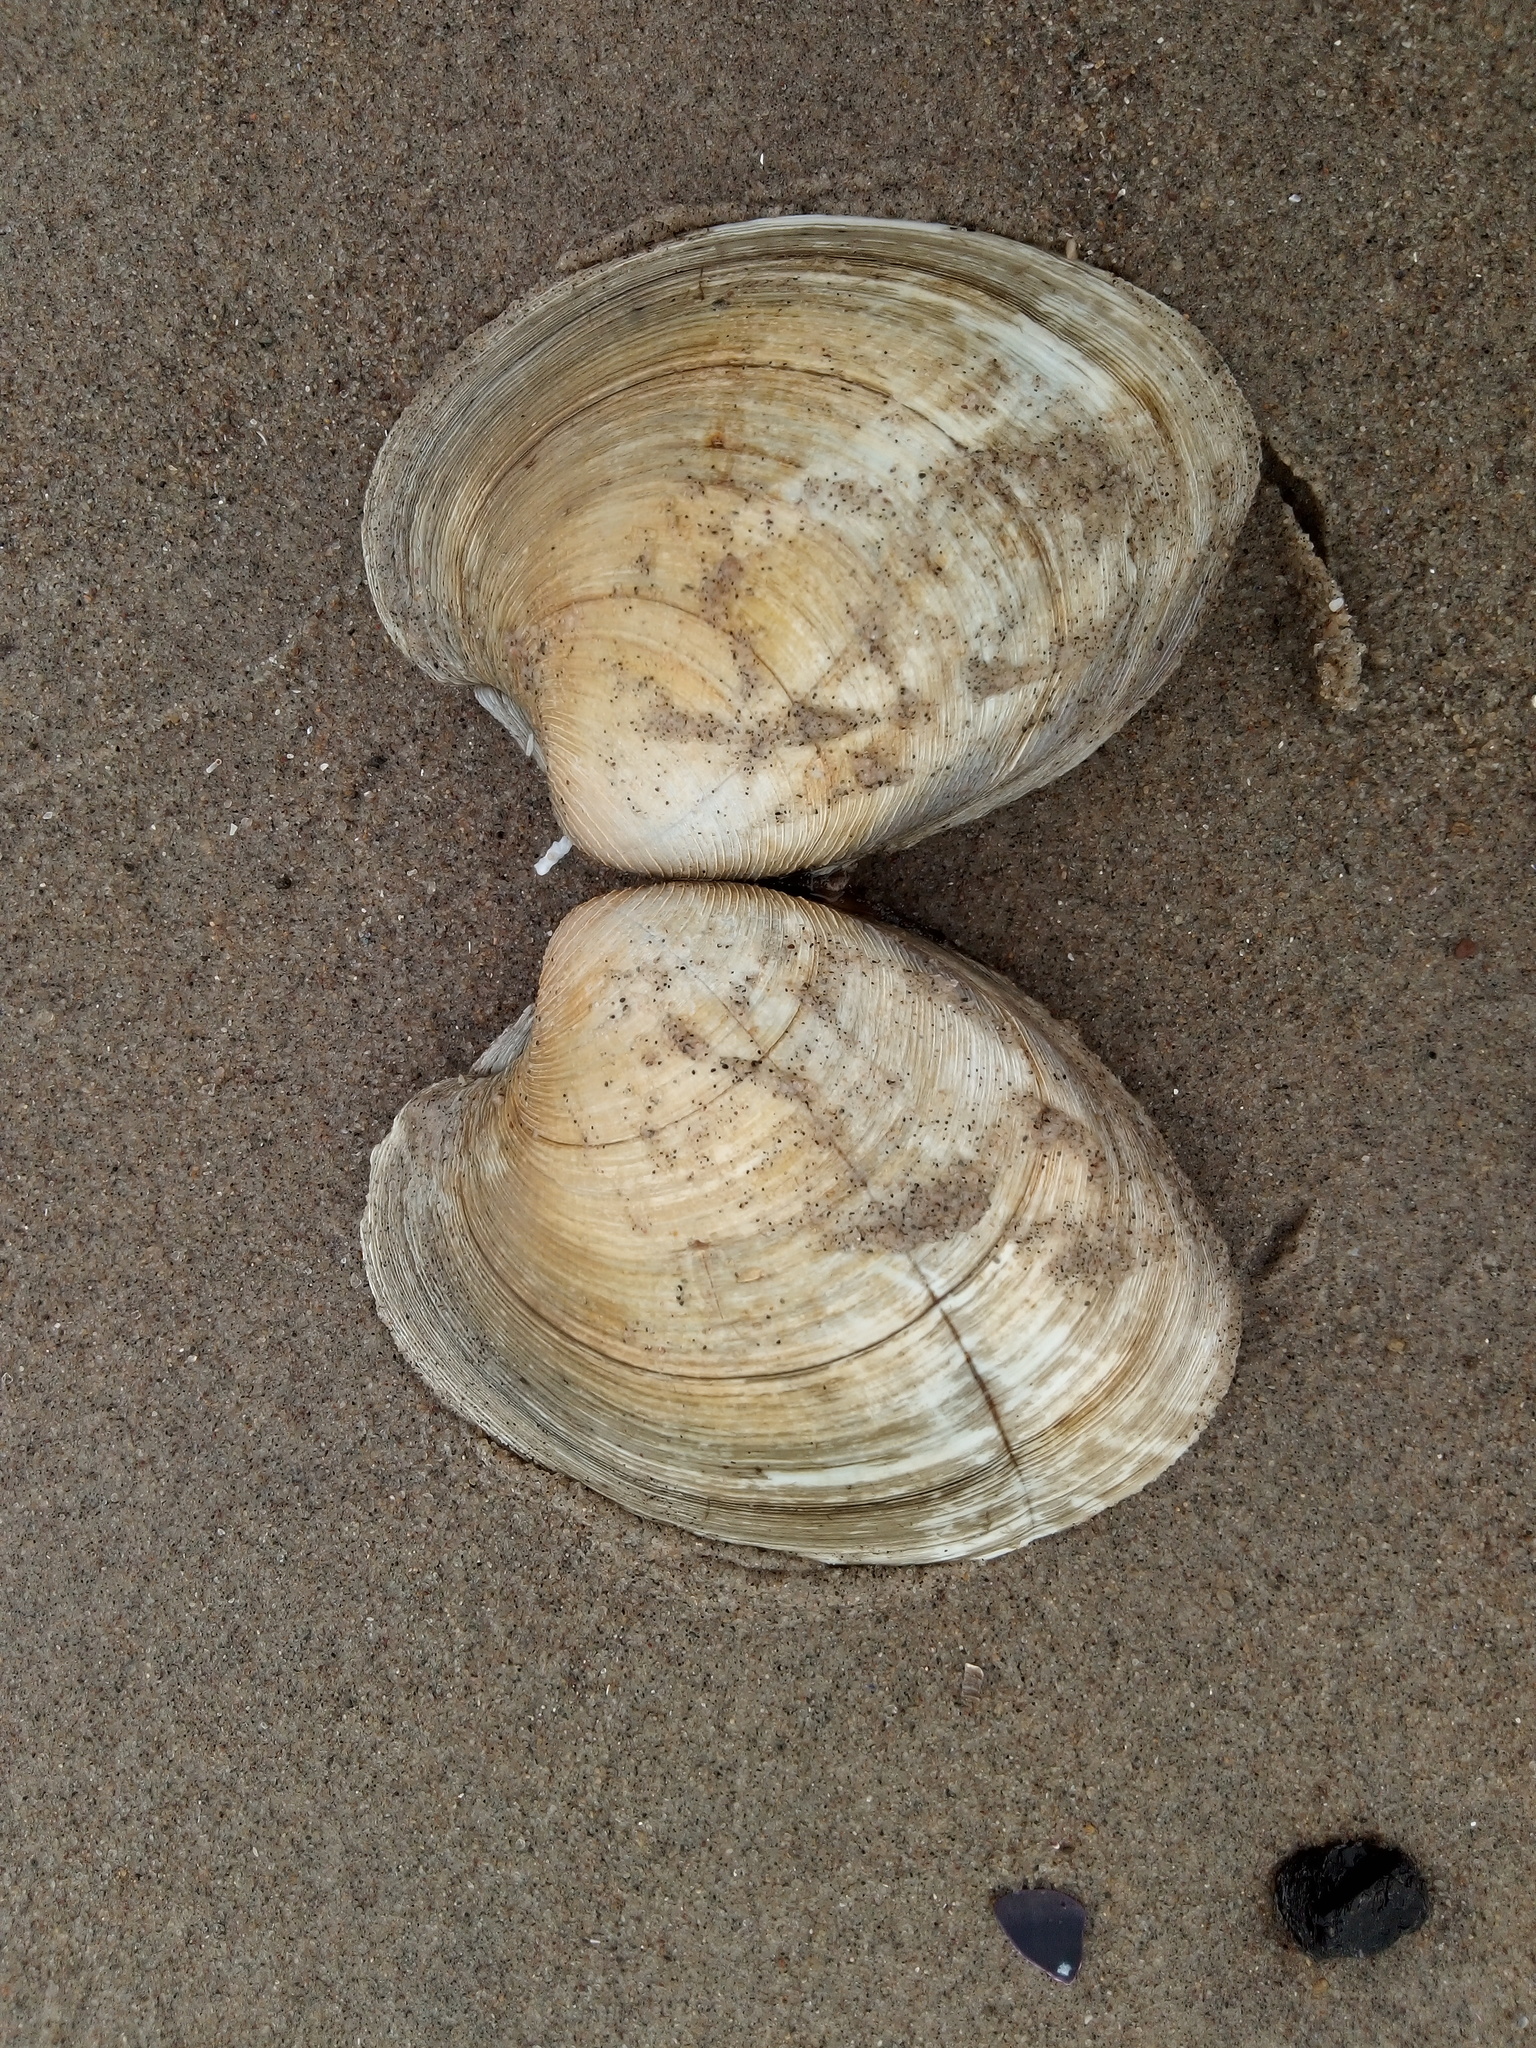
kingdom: Animalia
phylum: Mollusca
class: Bivalvia
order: Venerida
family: Veneridae
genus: Mercenaria
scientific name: Mercenaria mercenaria
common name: American hard-shelled clam
